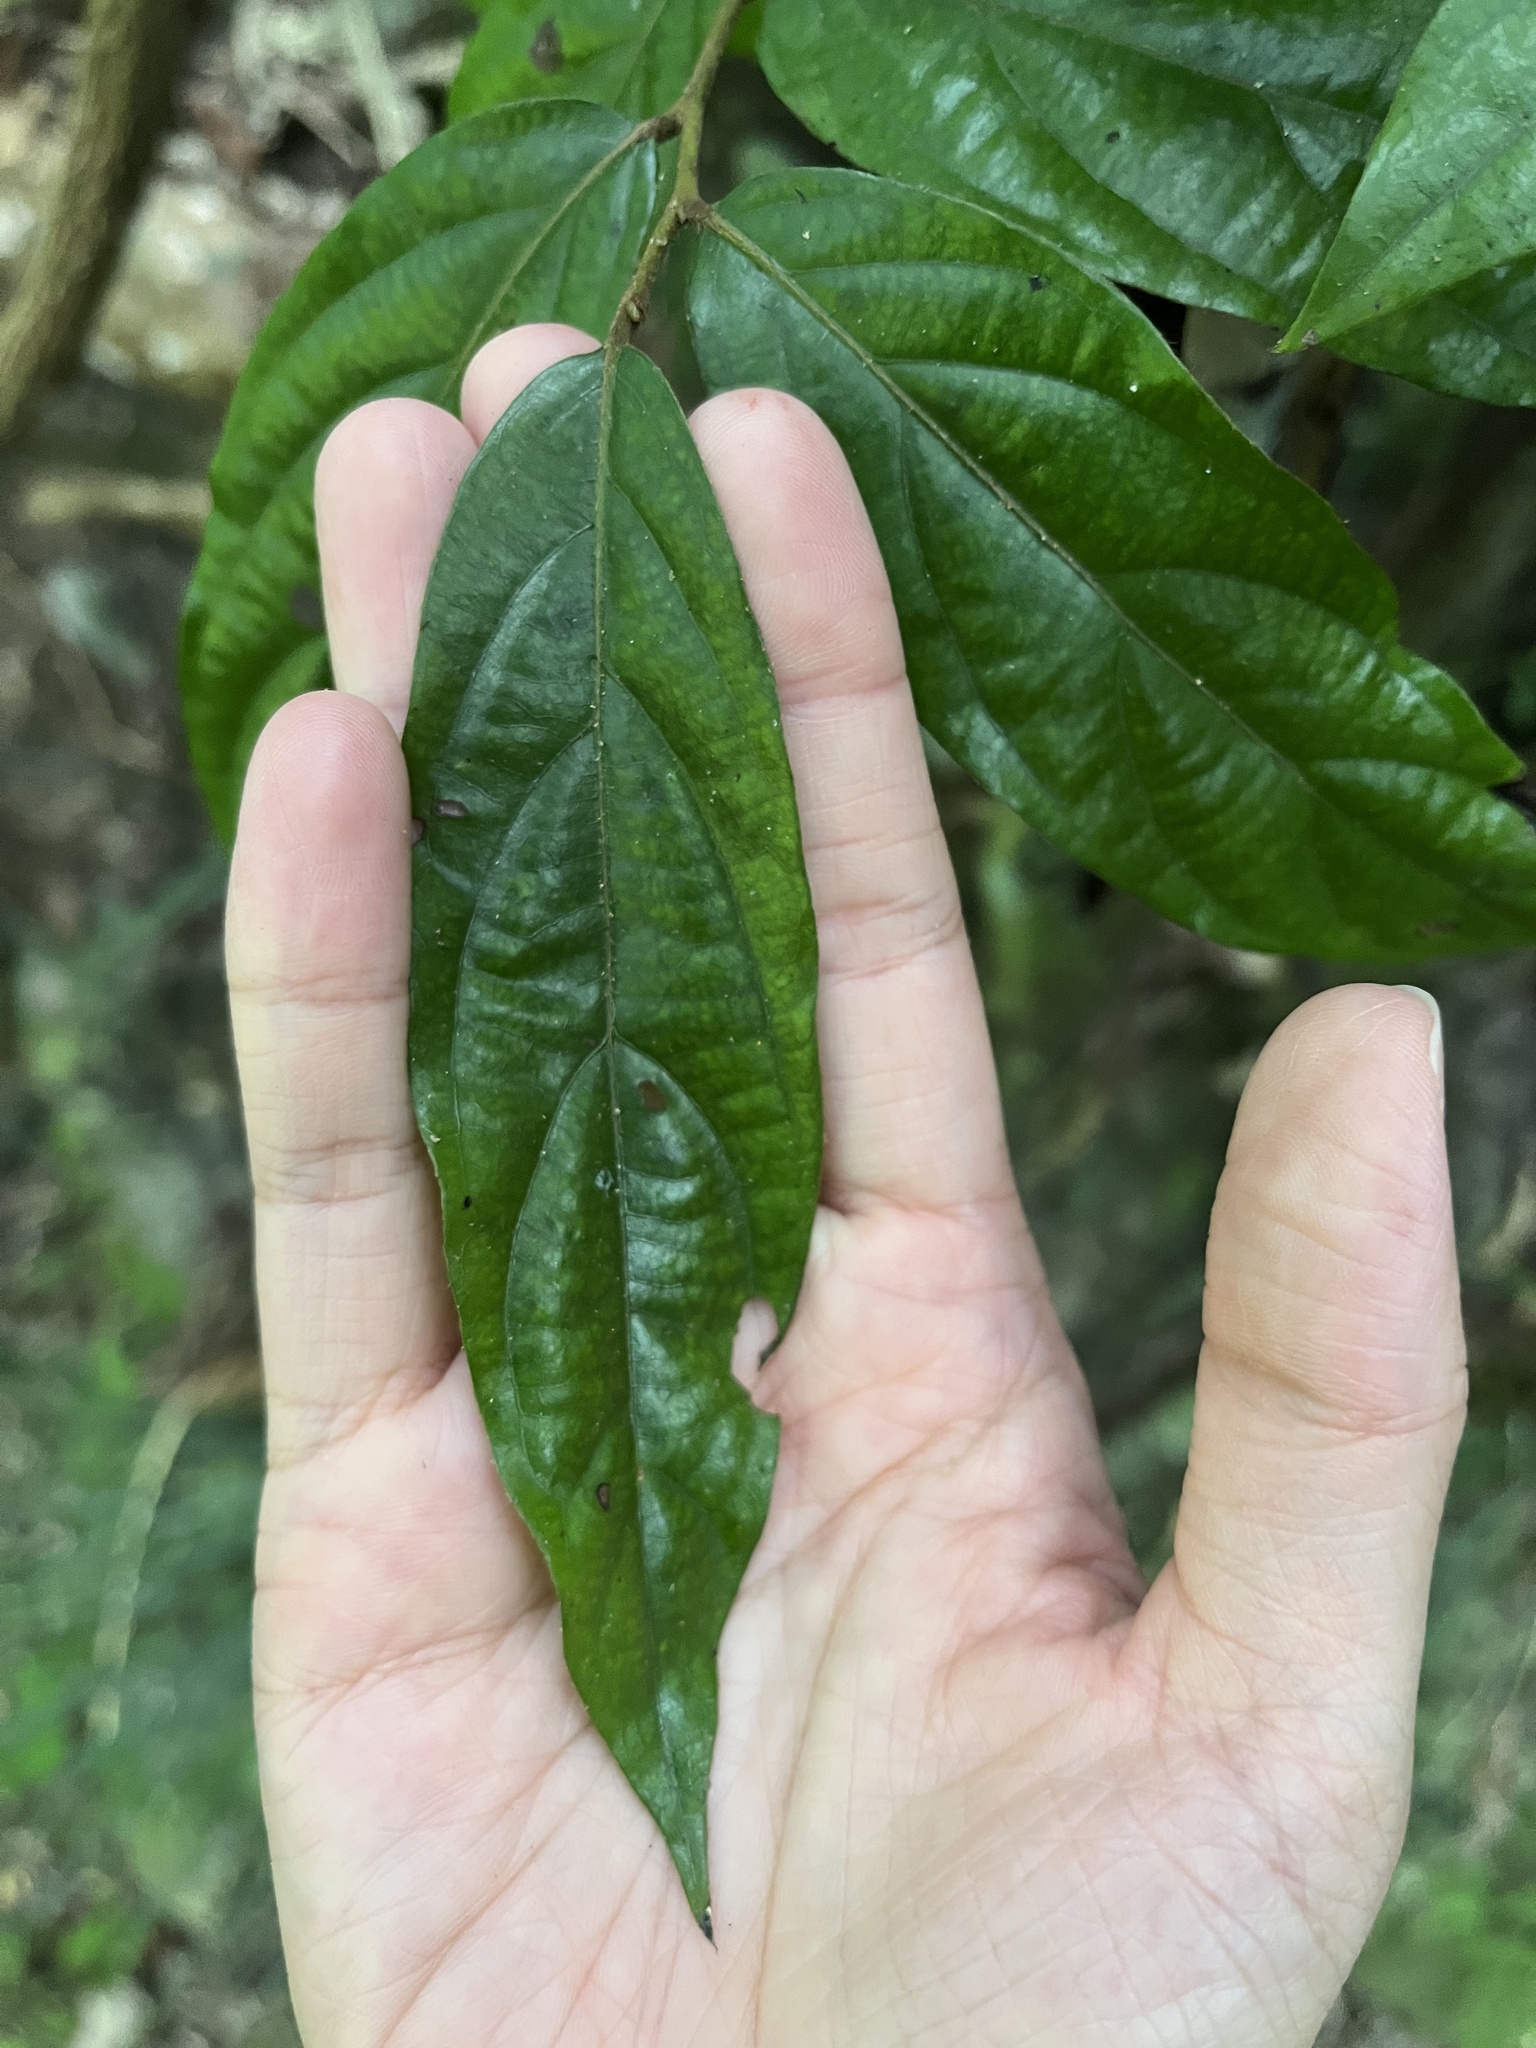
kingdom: Plantae
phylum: Tracheophyta
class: Magnoliopsida
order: Ericales
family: Ebenaceae
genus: Diospyros
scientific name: Diospyros eriantha
